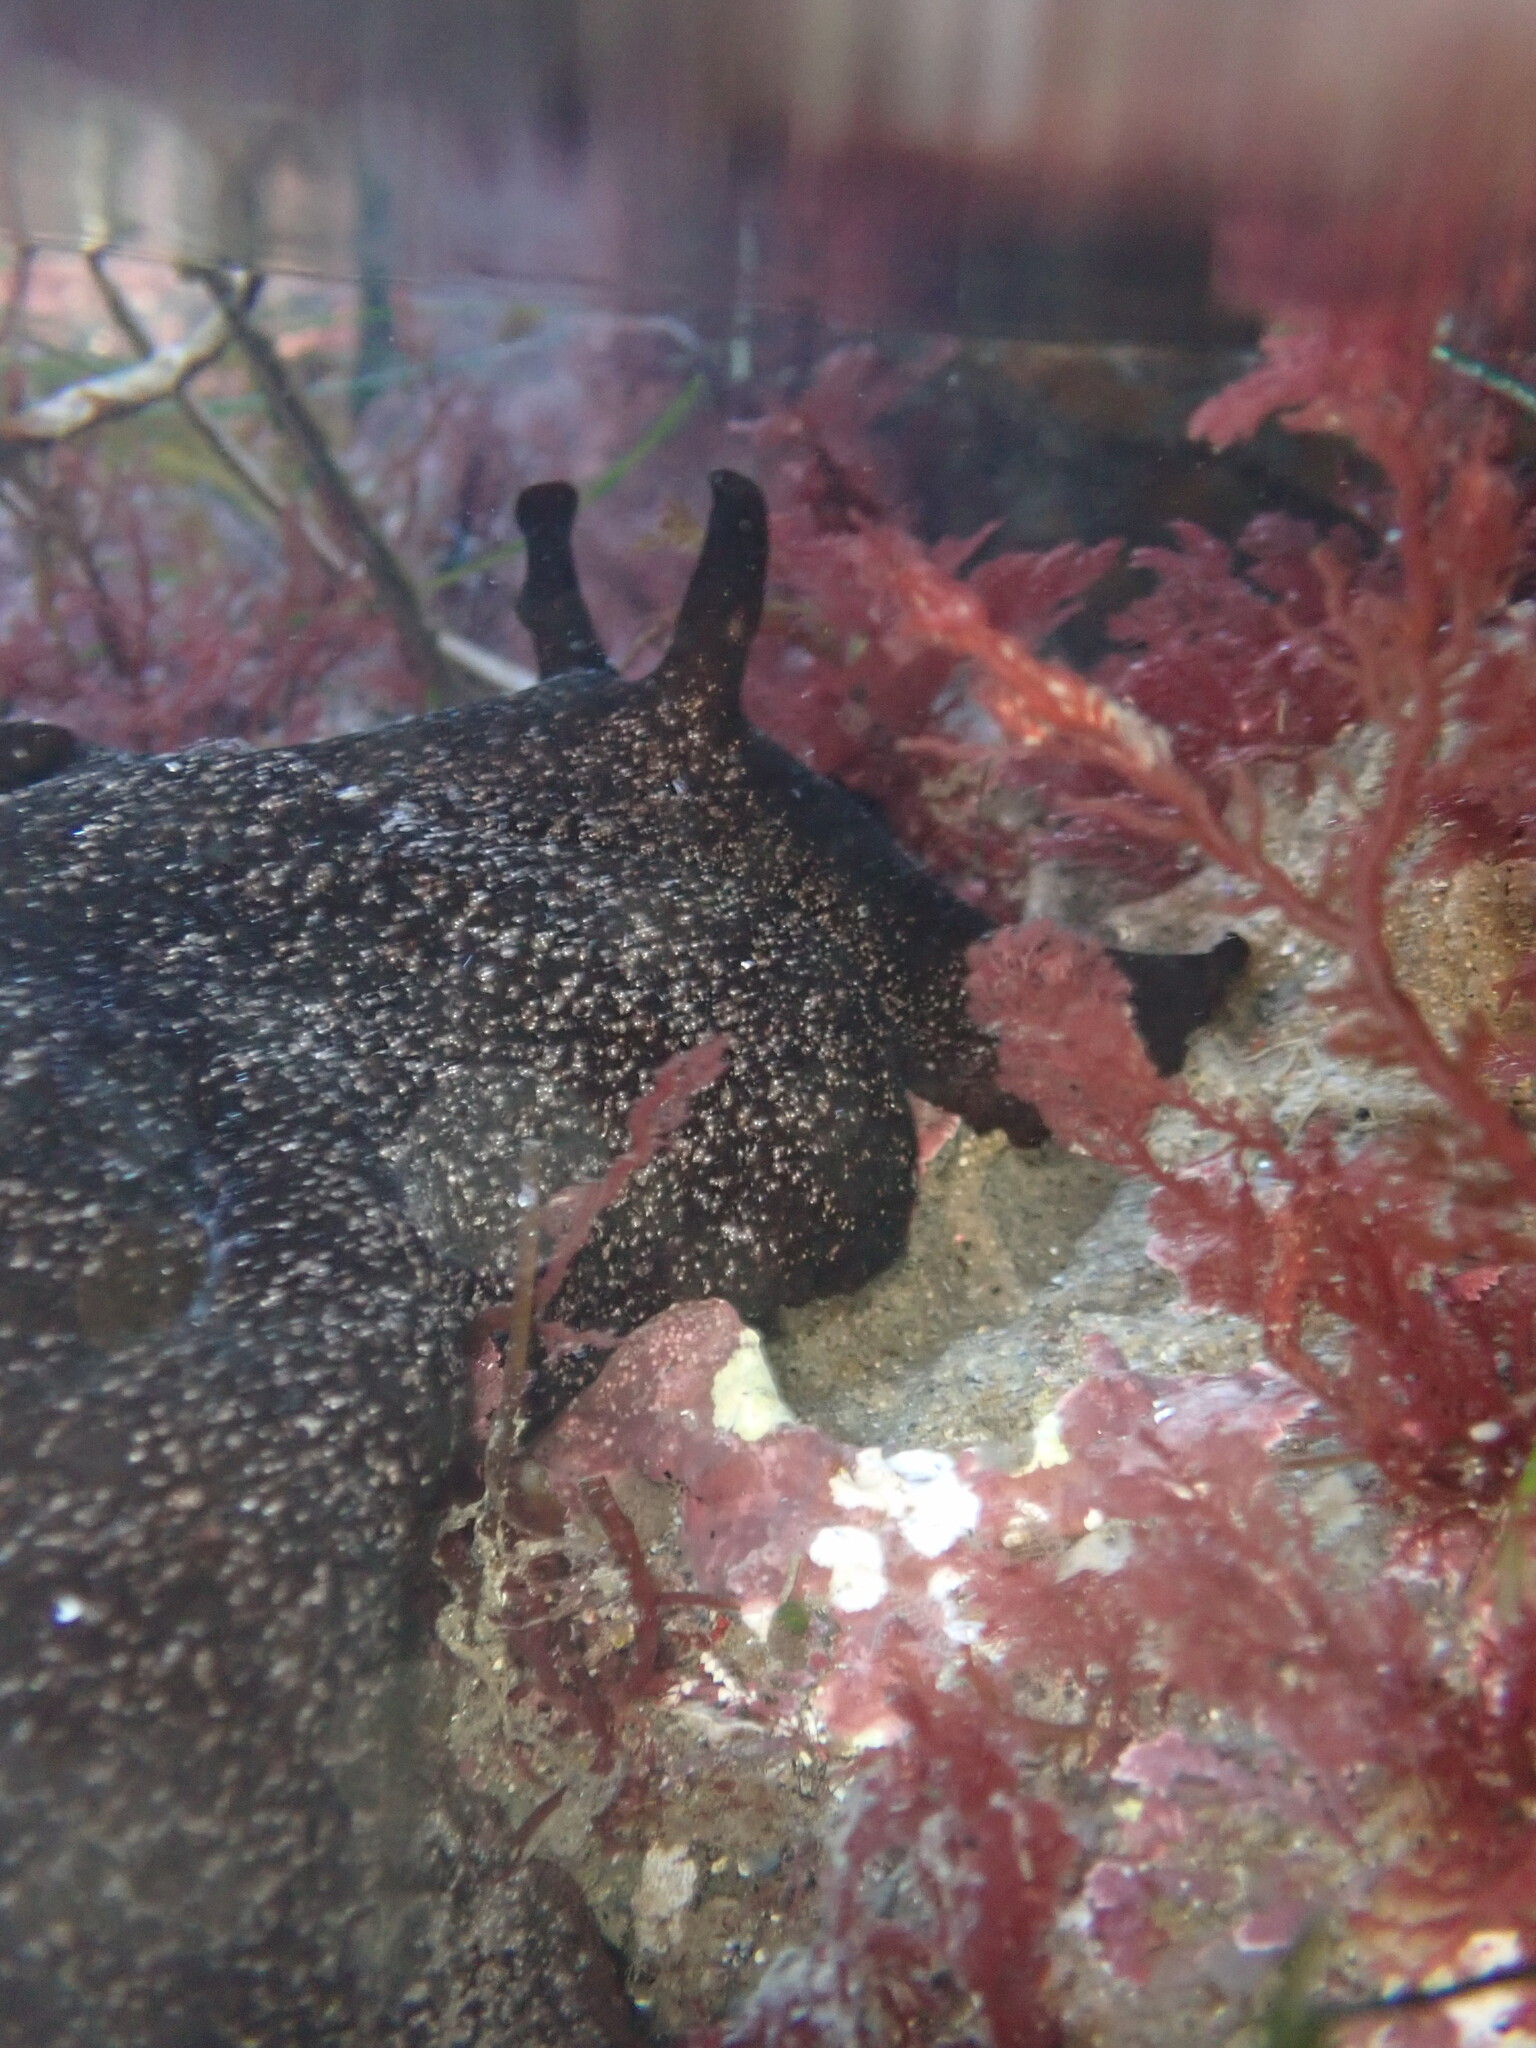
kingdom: Animalia
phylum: Mollusca
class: Gastropoda
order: Aplysiida
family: Aplysiidae
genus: Aplysia
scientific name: Aplysia vaccaria
